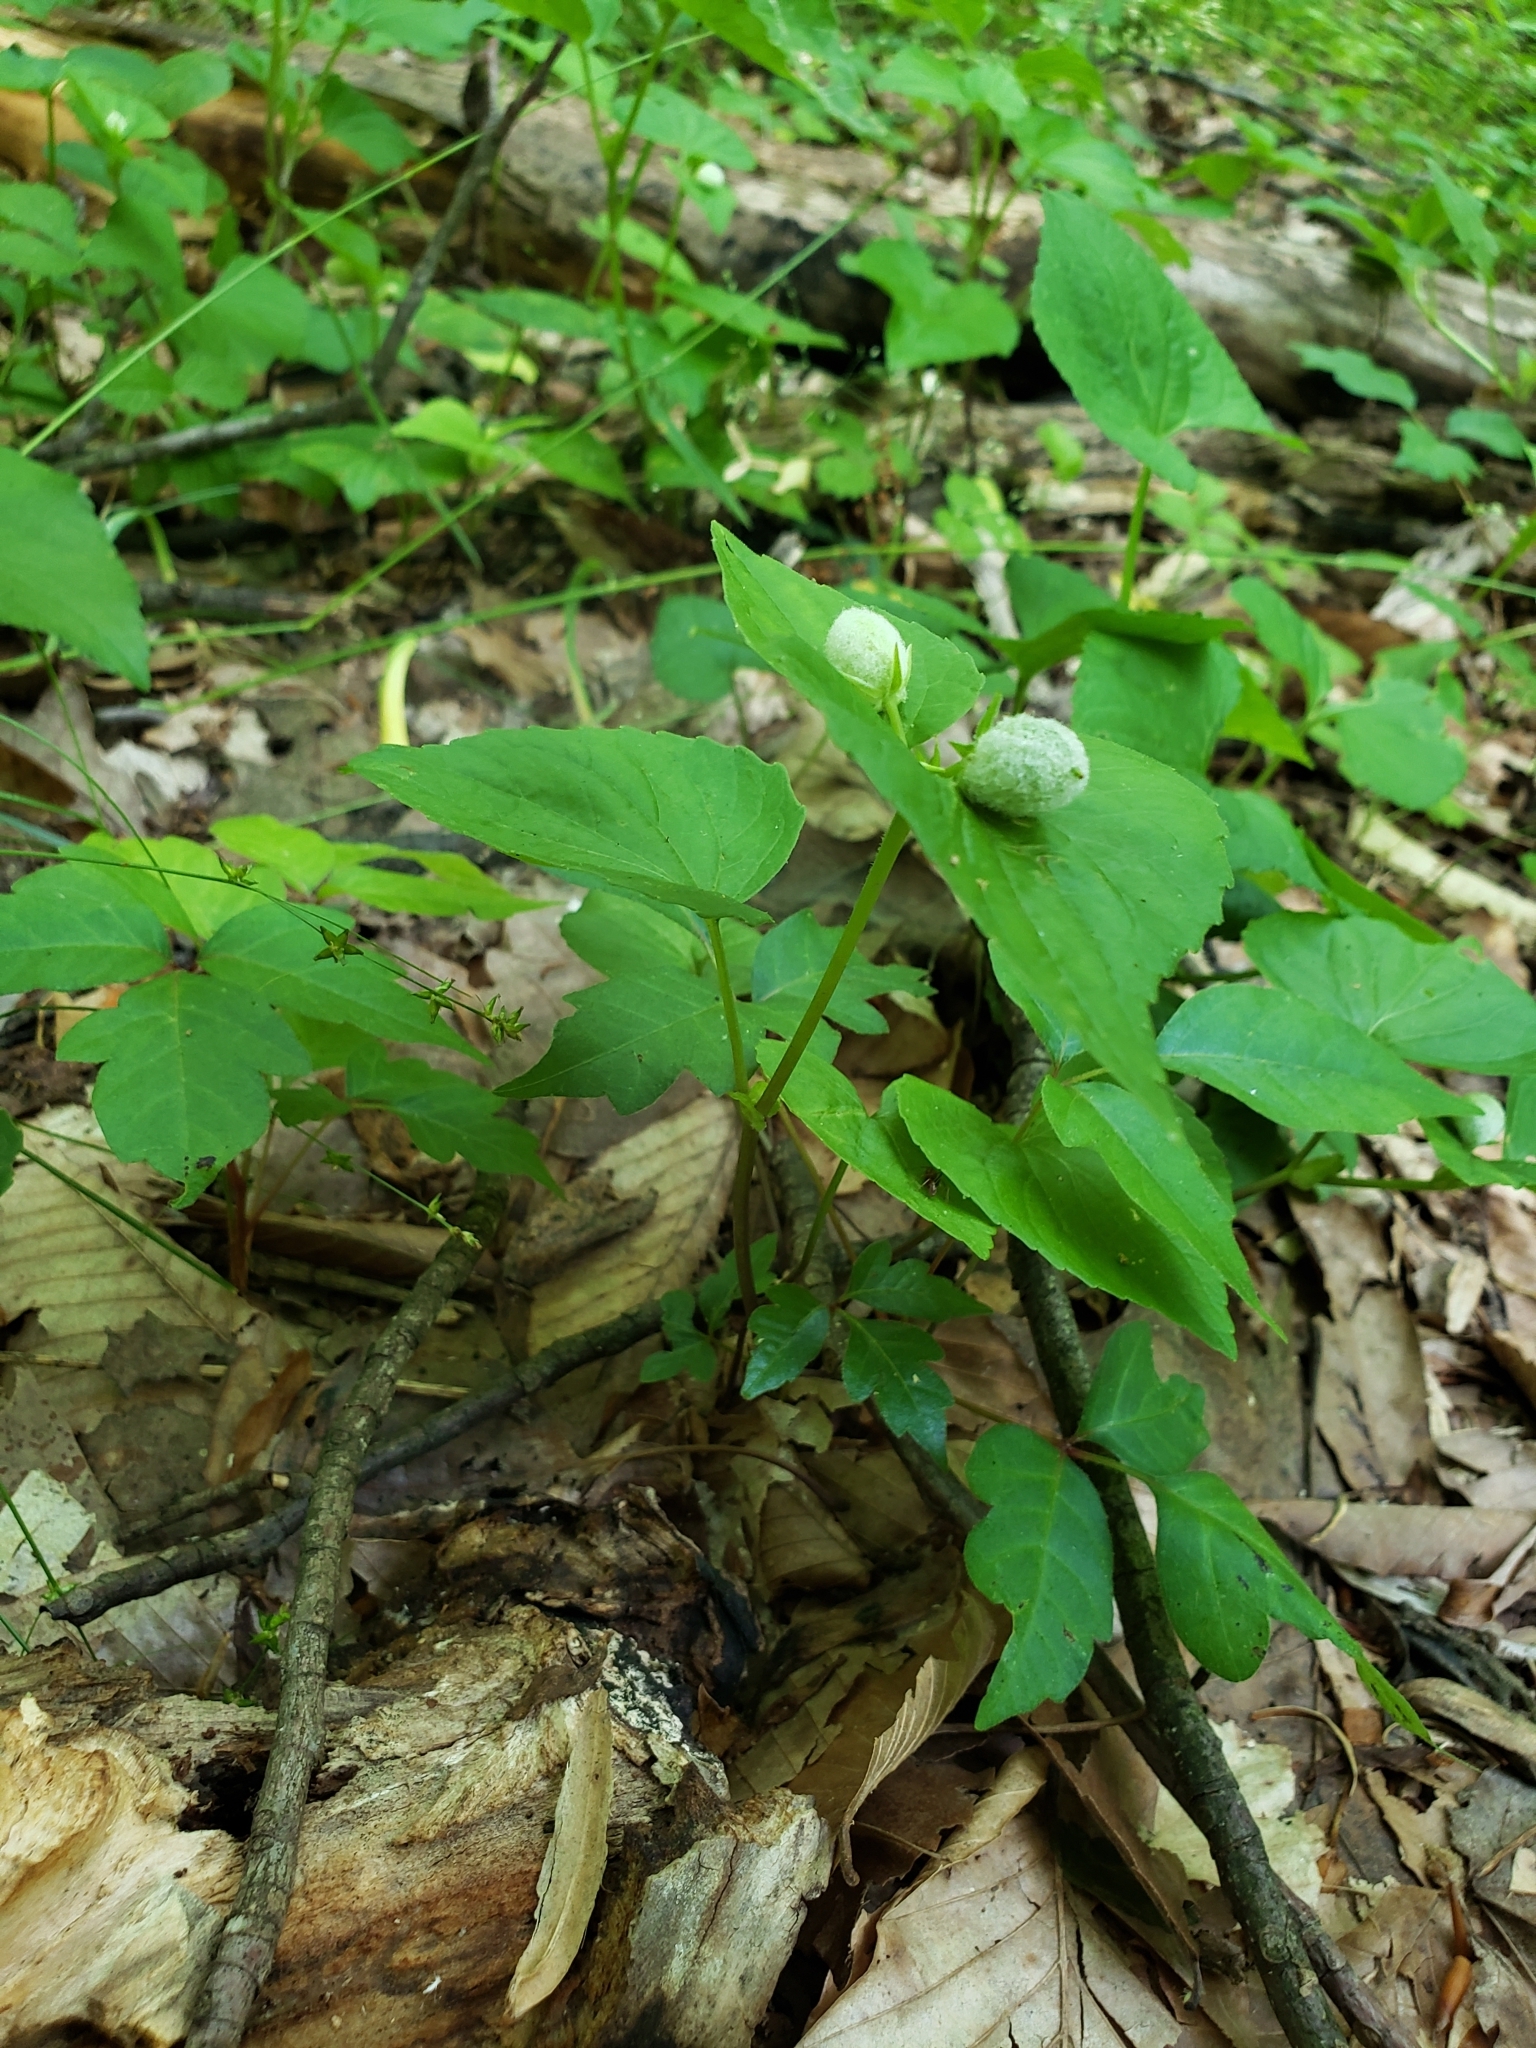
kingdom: Plantae
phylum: Tracheophyta
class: Magnoliopsida
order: Malpighiales
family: Violaceae
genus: Viola
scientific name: Viola eriocarpa
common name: Smooth yellow violet
